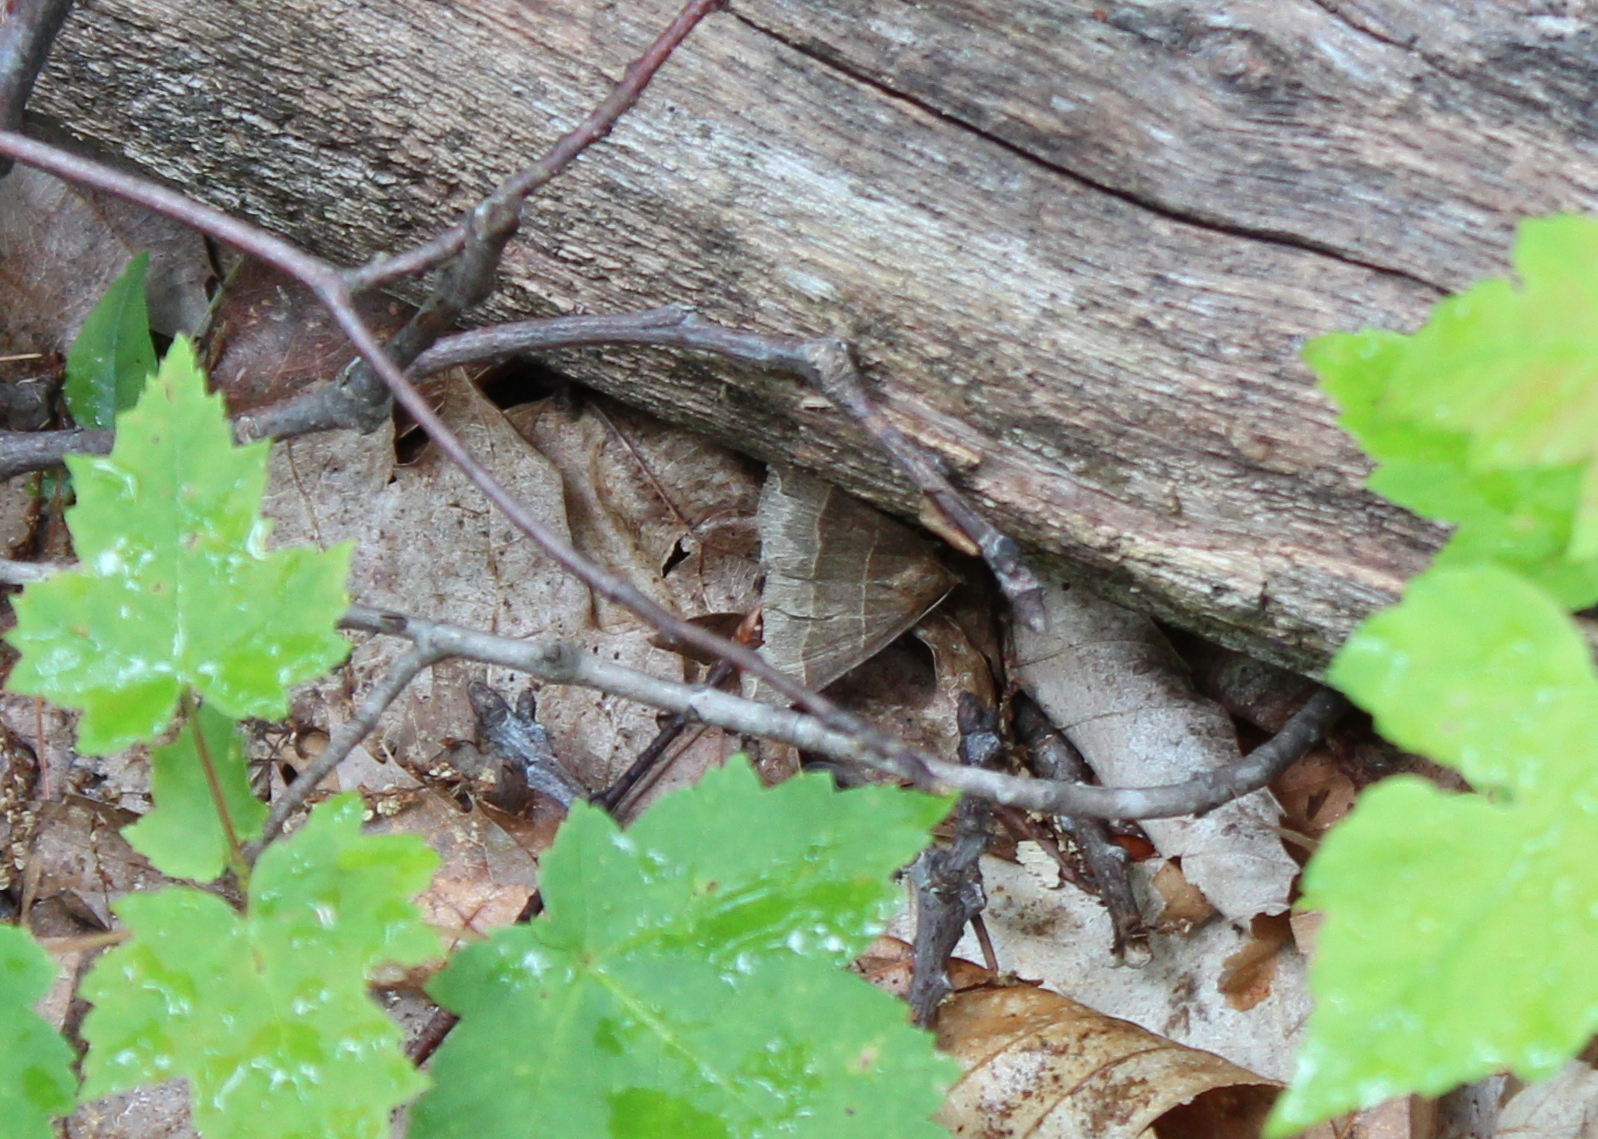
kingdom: Animalia
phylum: Arthropoda
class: Insecta
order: Lepidoptera
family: Erebidae
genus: Parallelia
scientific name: Parallelia bistriaris
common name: Maple looper moth
